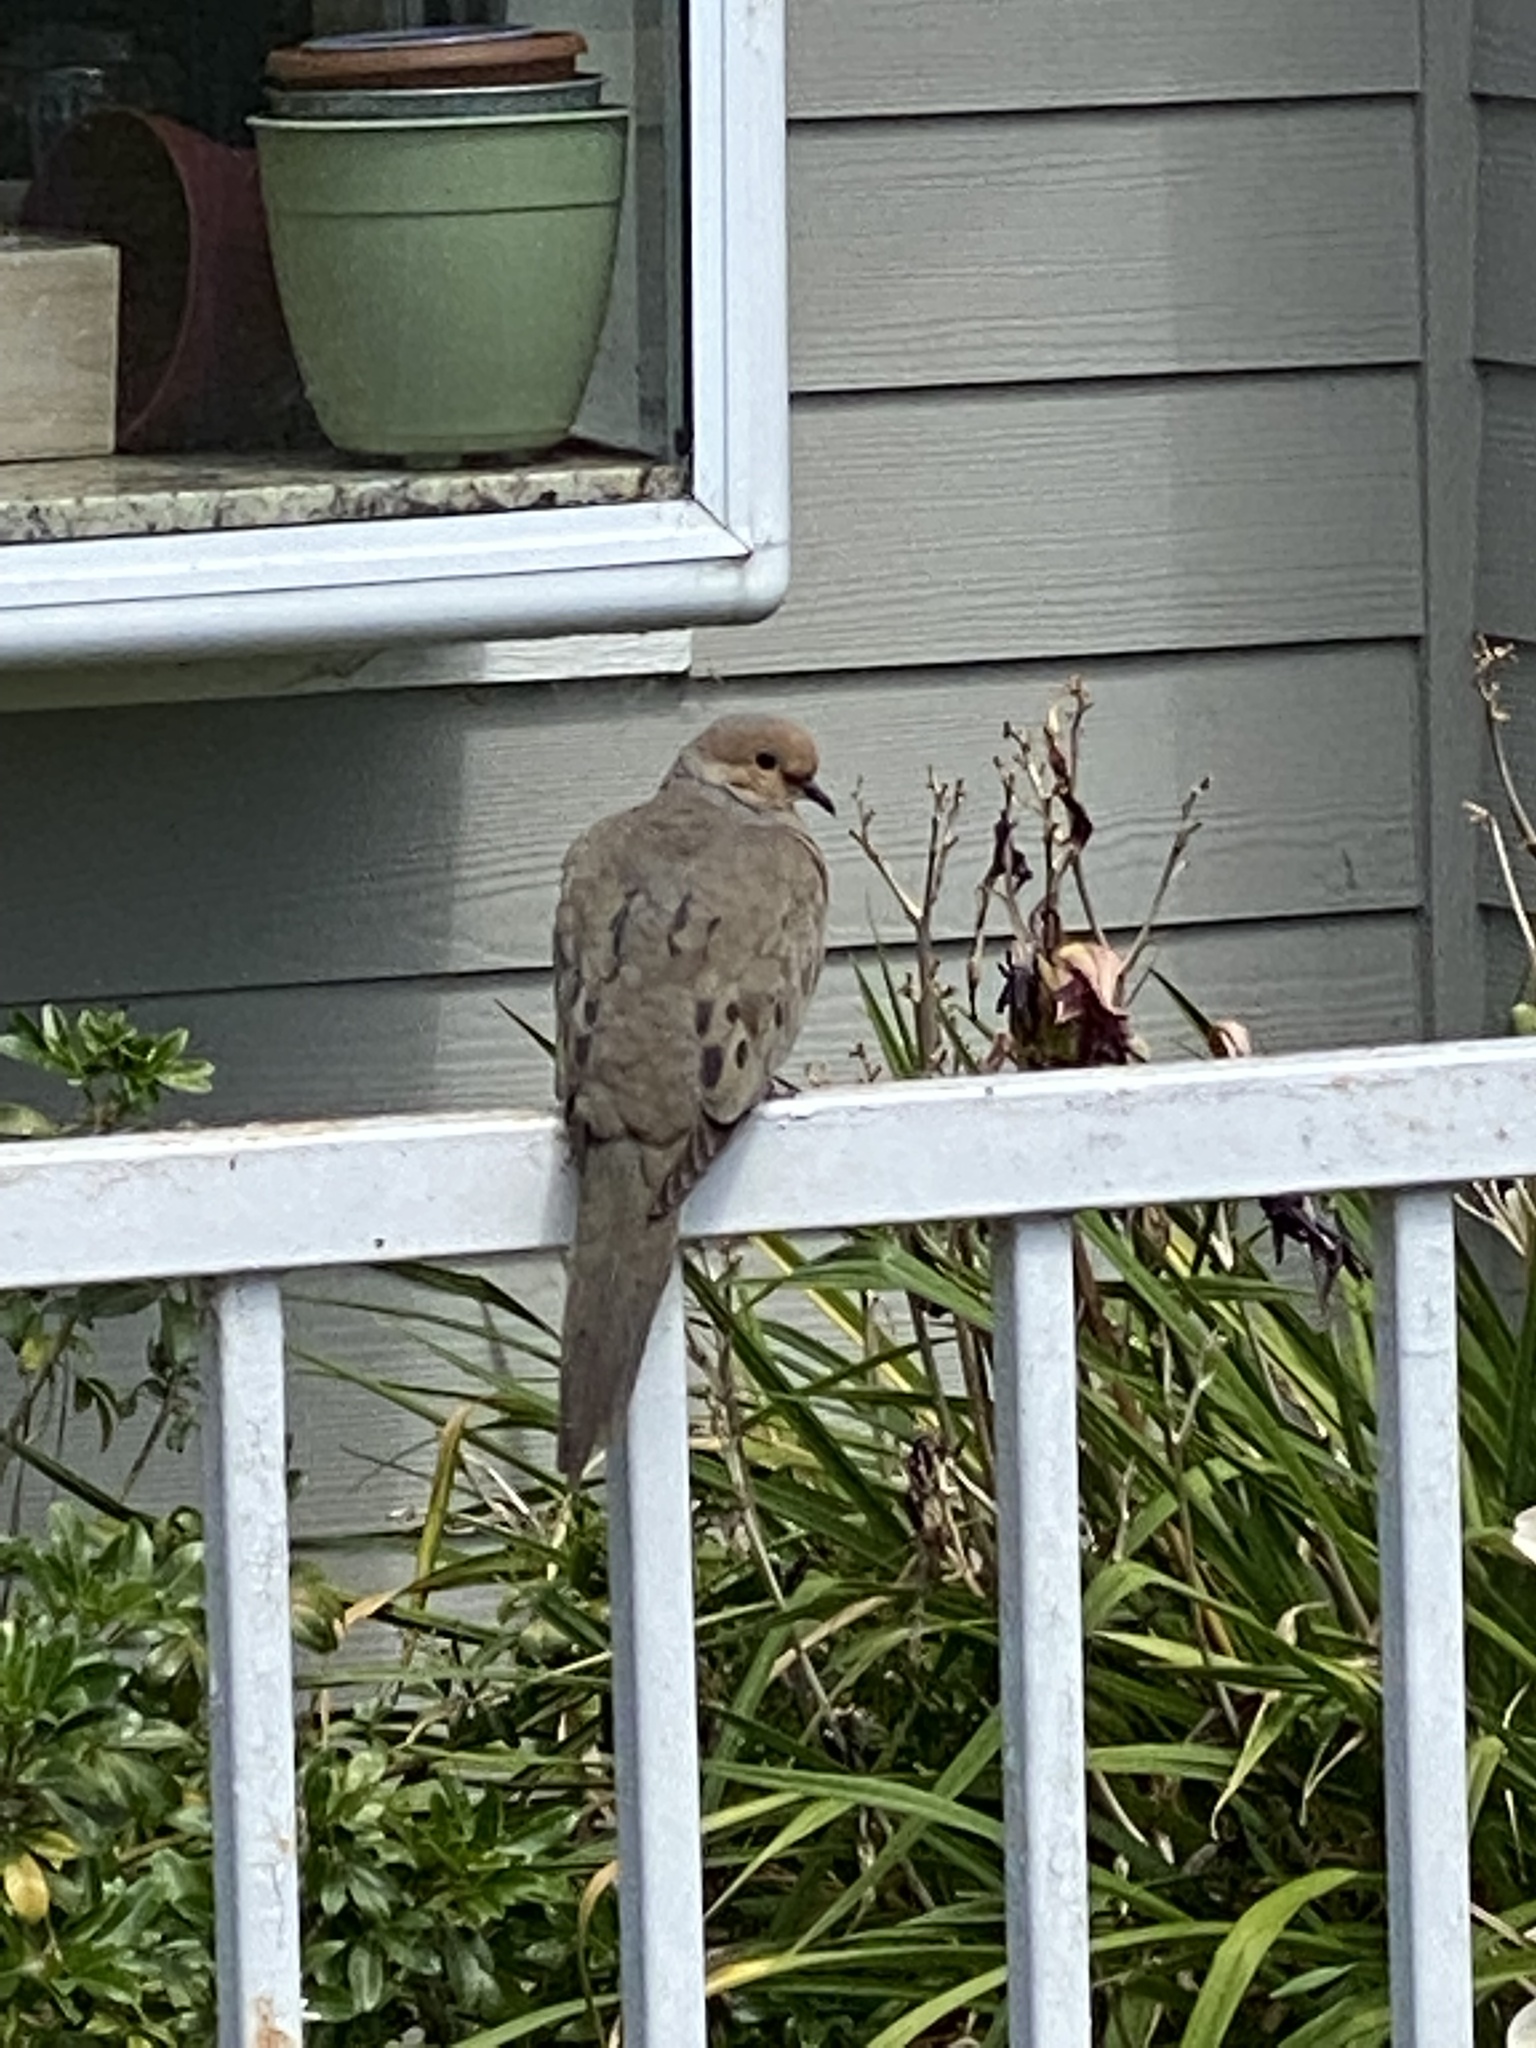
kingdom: Animalia
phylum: Chordata
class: Aves
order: Columbiformes
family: Columbidae
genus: Zenaida
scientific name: Zenaida macroura
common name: Mourning dove
